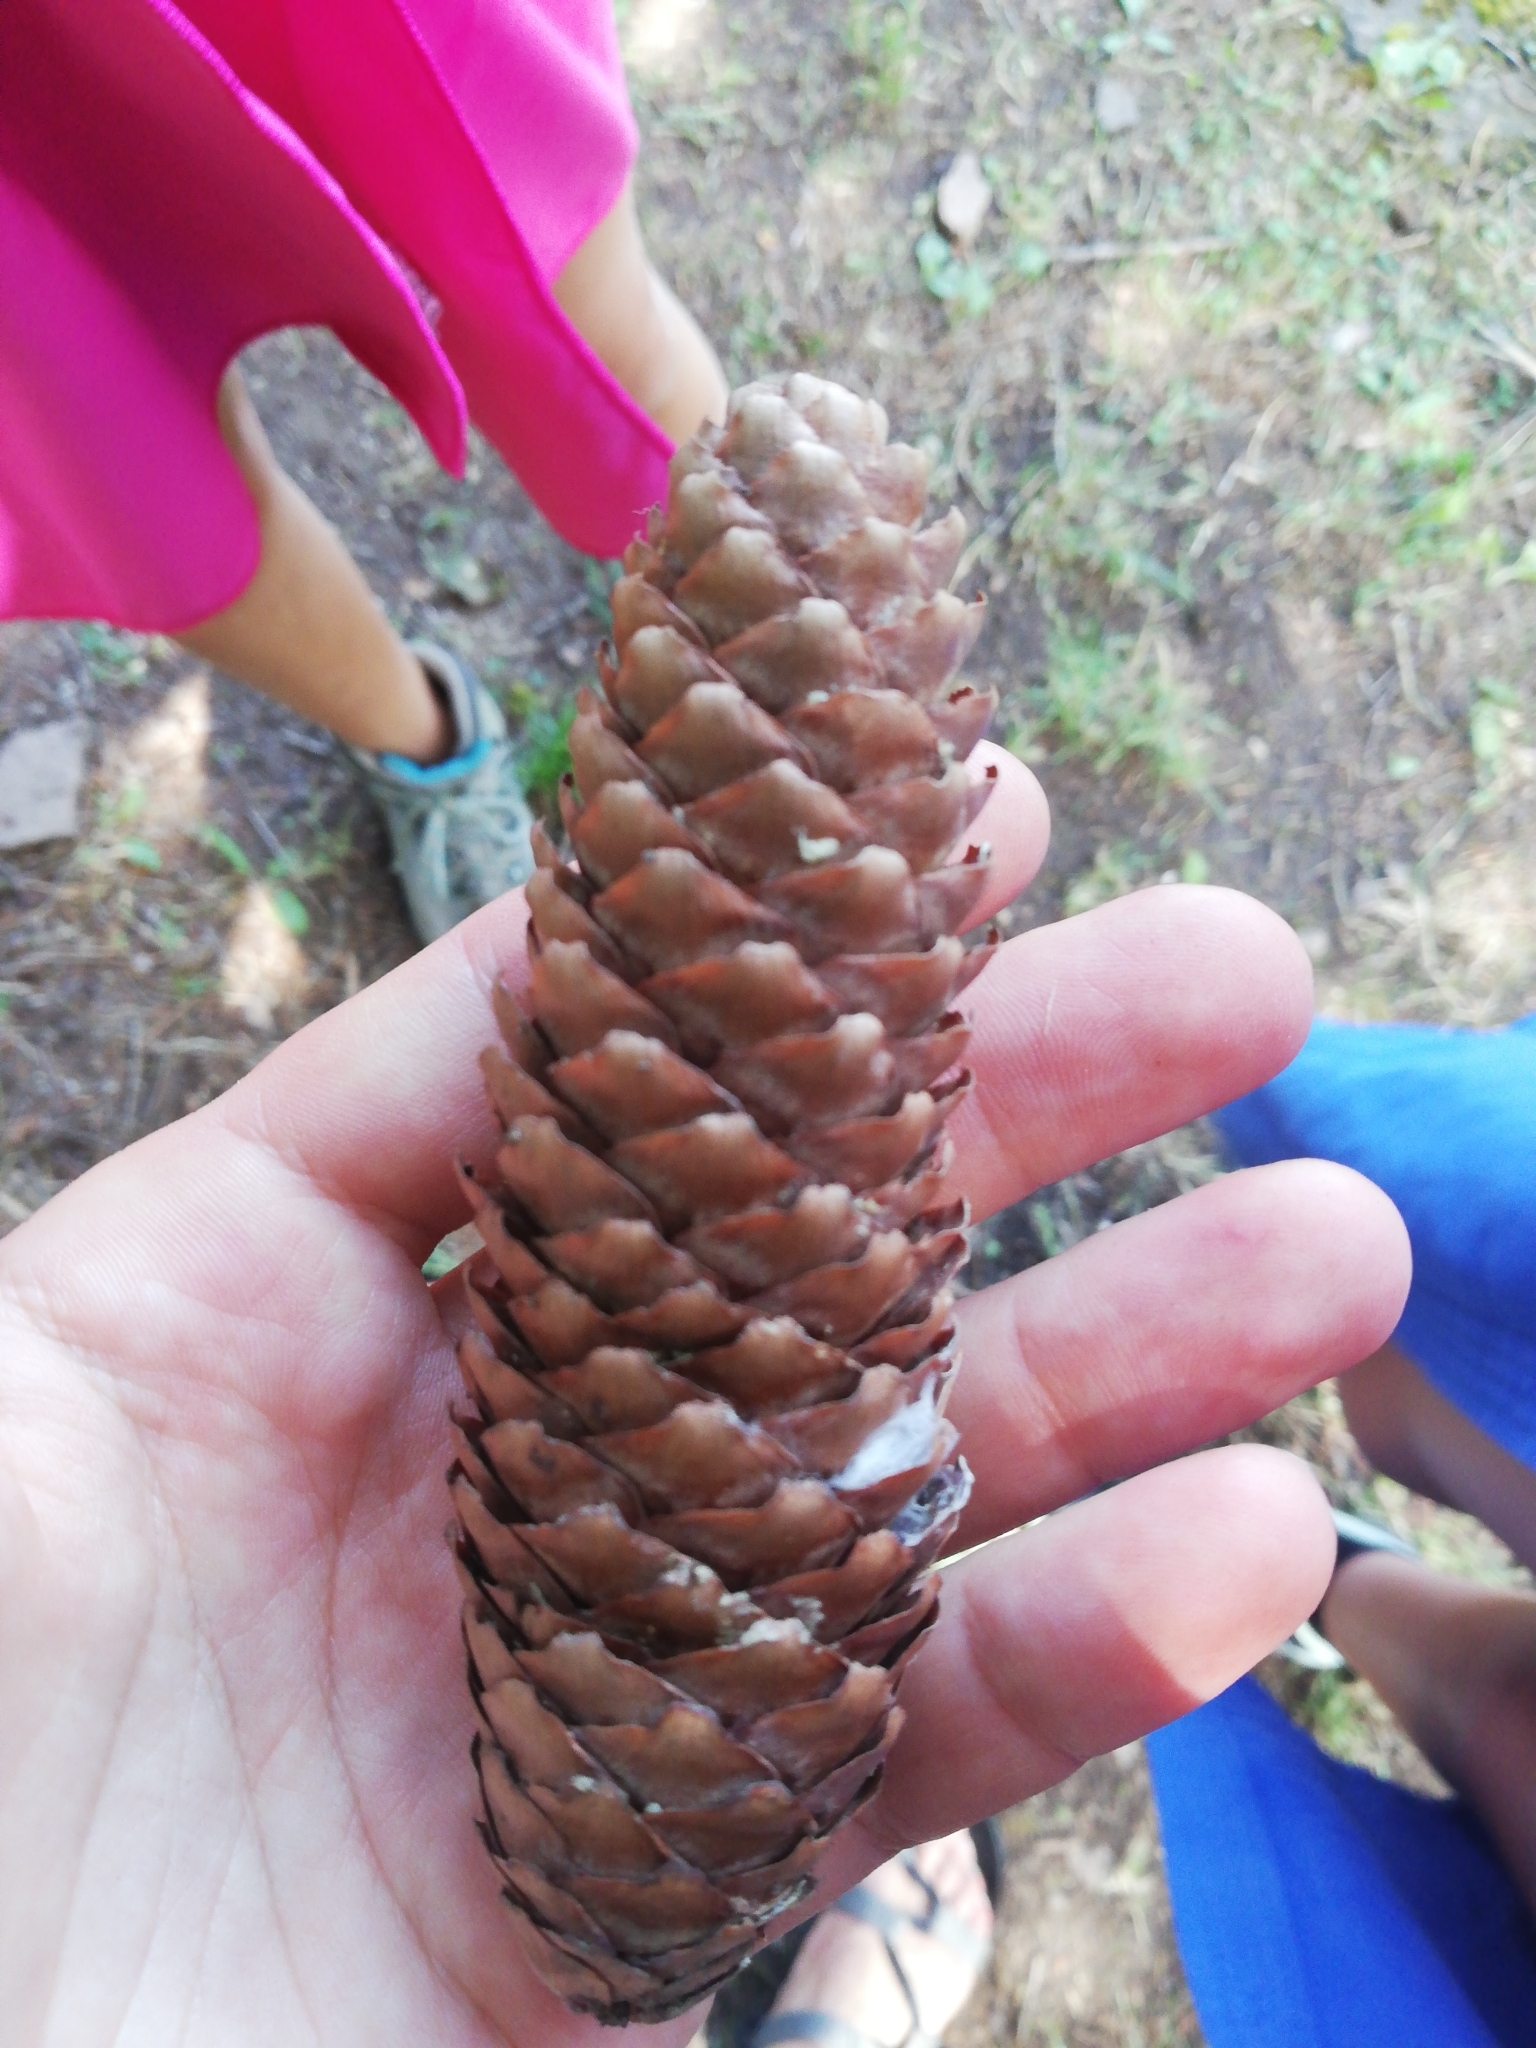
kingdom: Plantae
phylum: Tracheophyta
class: Pinopsida
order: Pinales
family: Pinaceae
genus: Picea
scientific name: Picea abies
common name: Norway spruce
